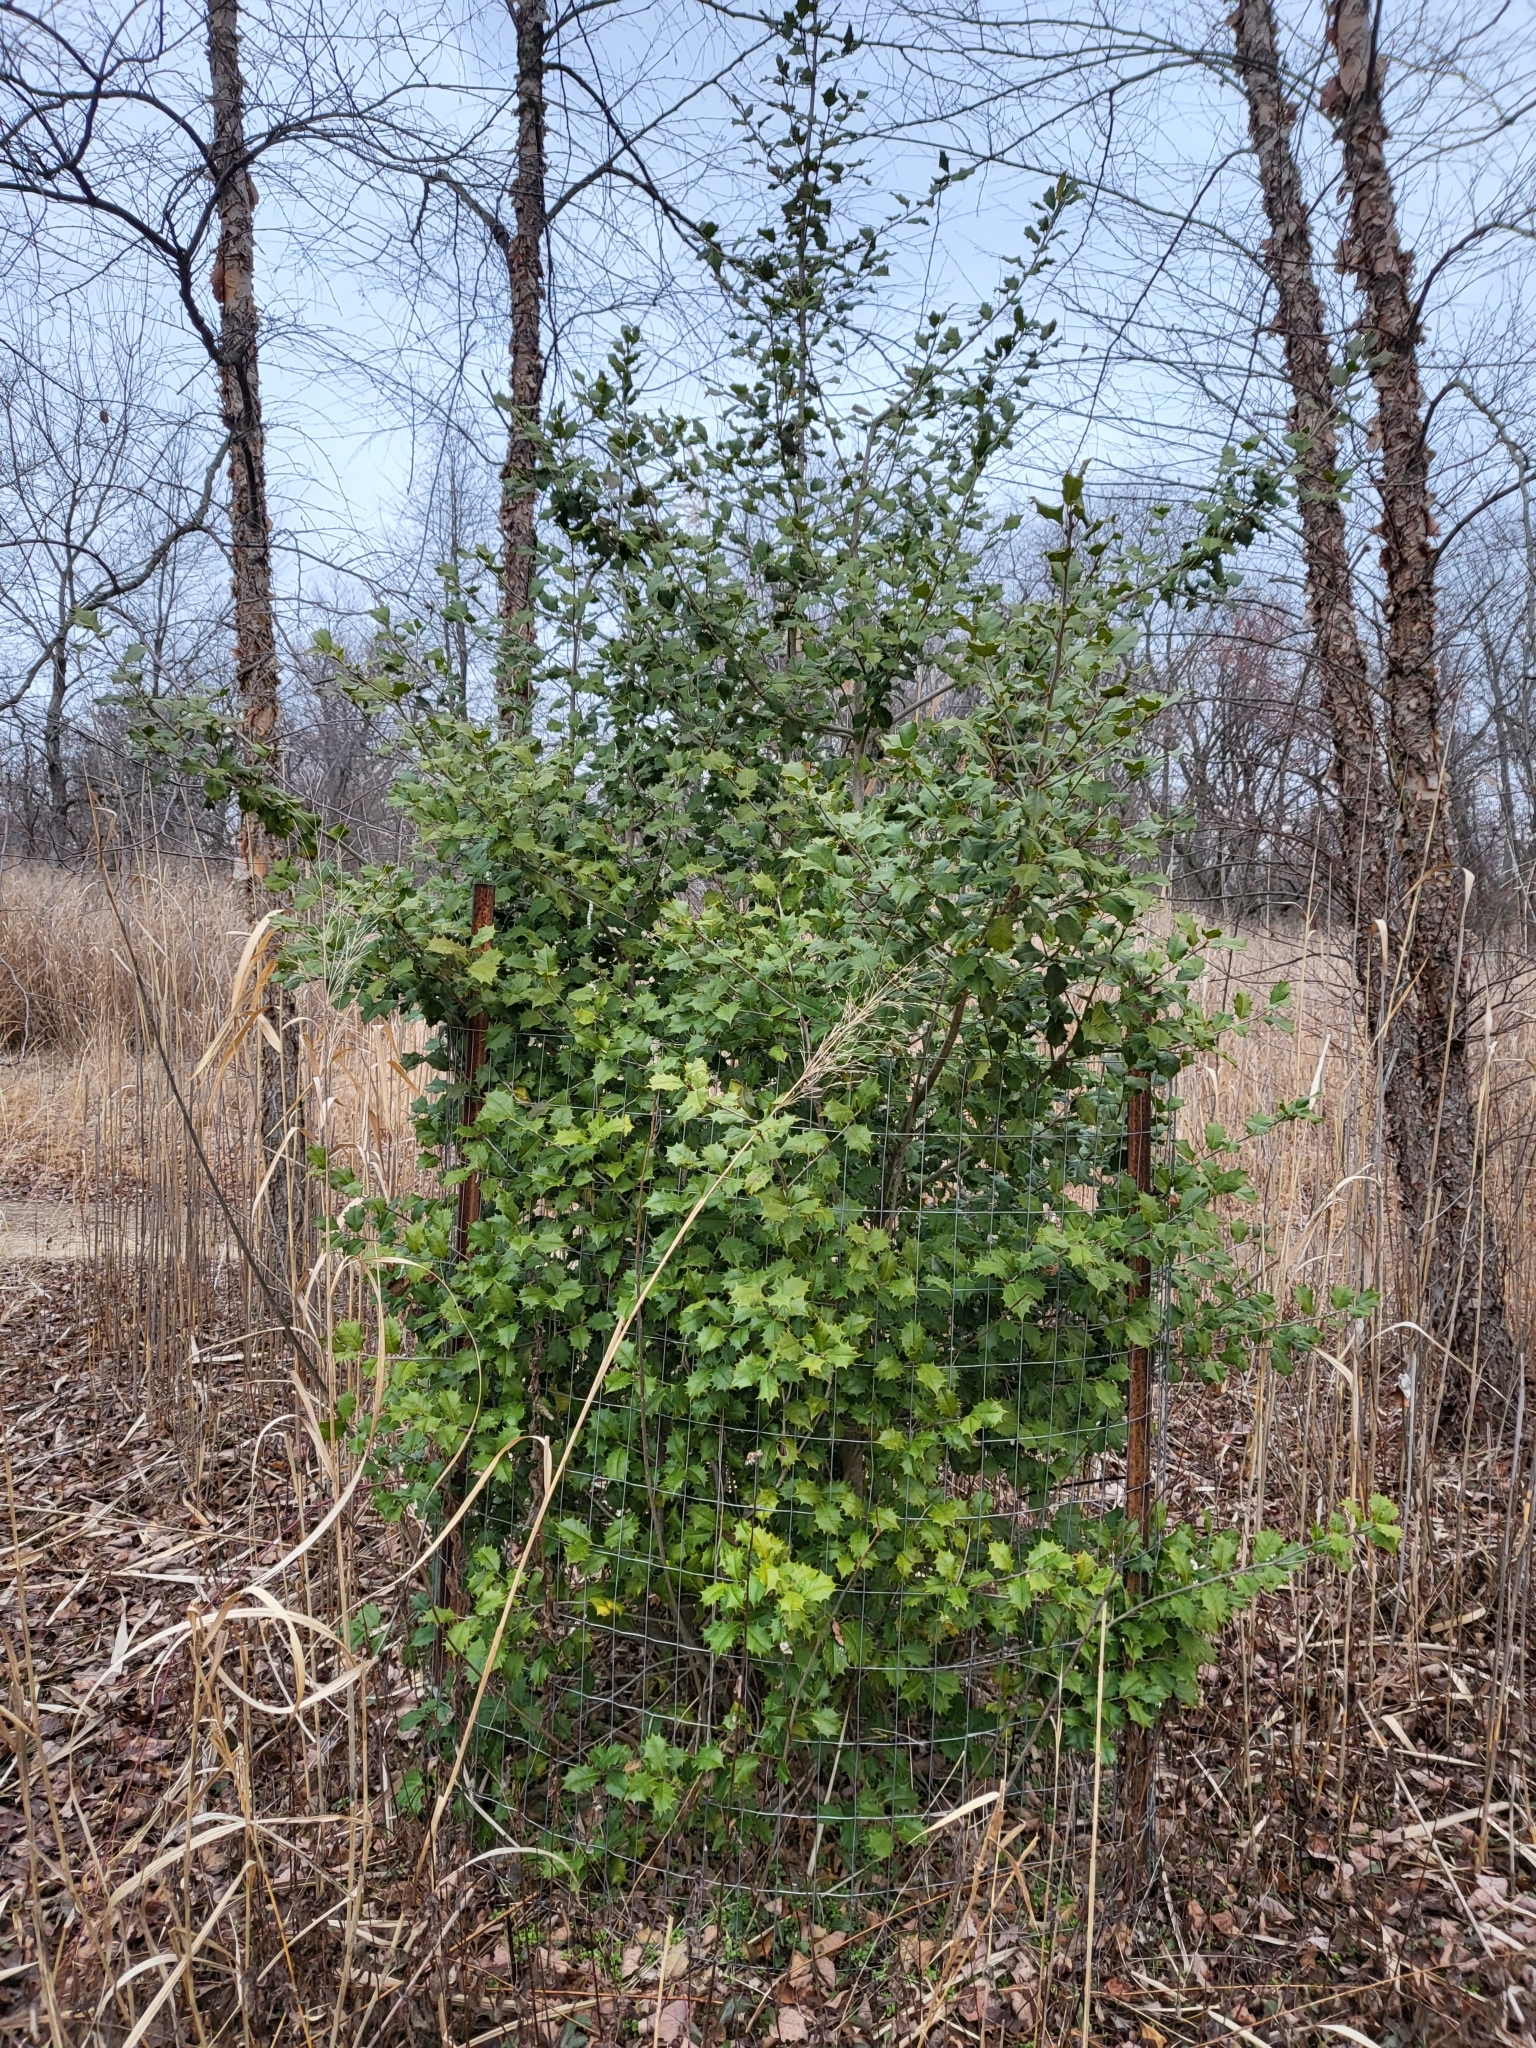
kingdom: Plantae
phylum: Tracheophyta
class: Magnoliopsida
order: Aquifoliales
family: Aquifoliaceae
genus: Ilex
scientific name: Ilex opaca
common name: American holly
